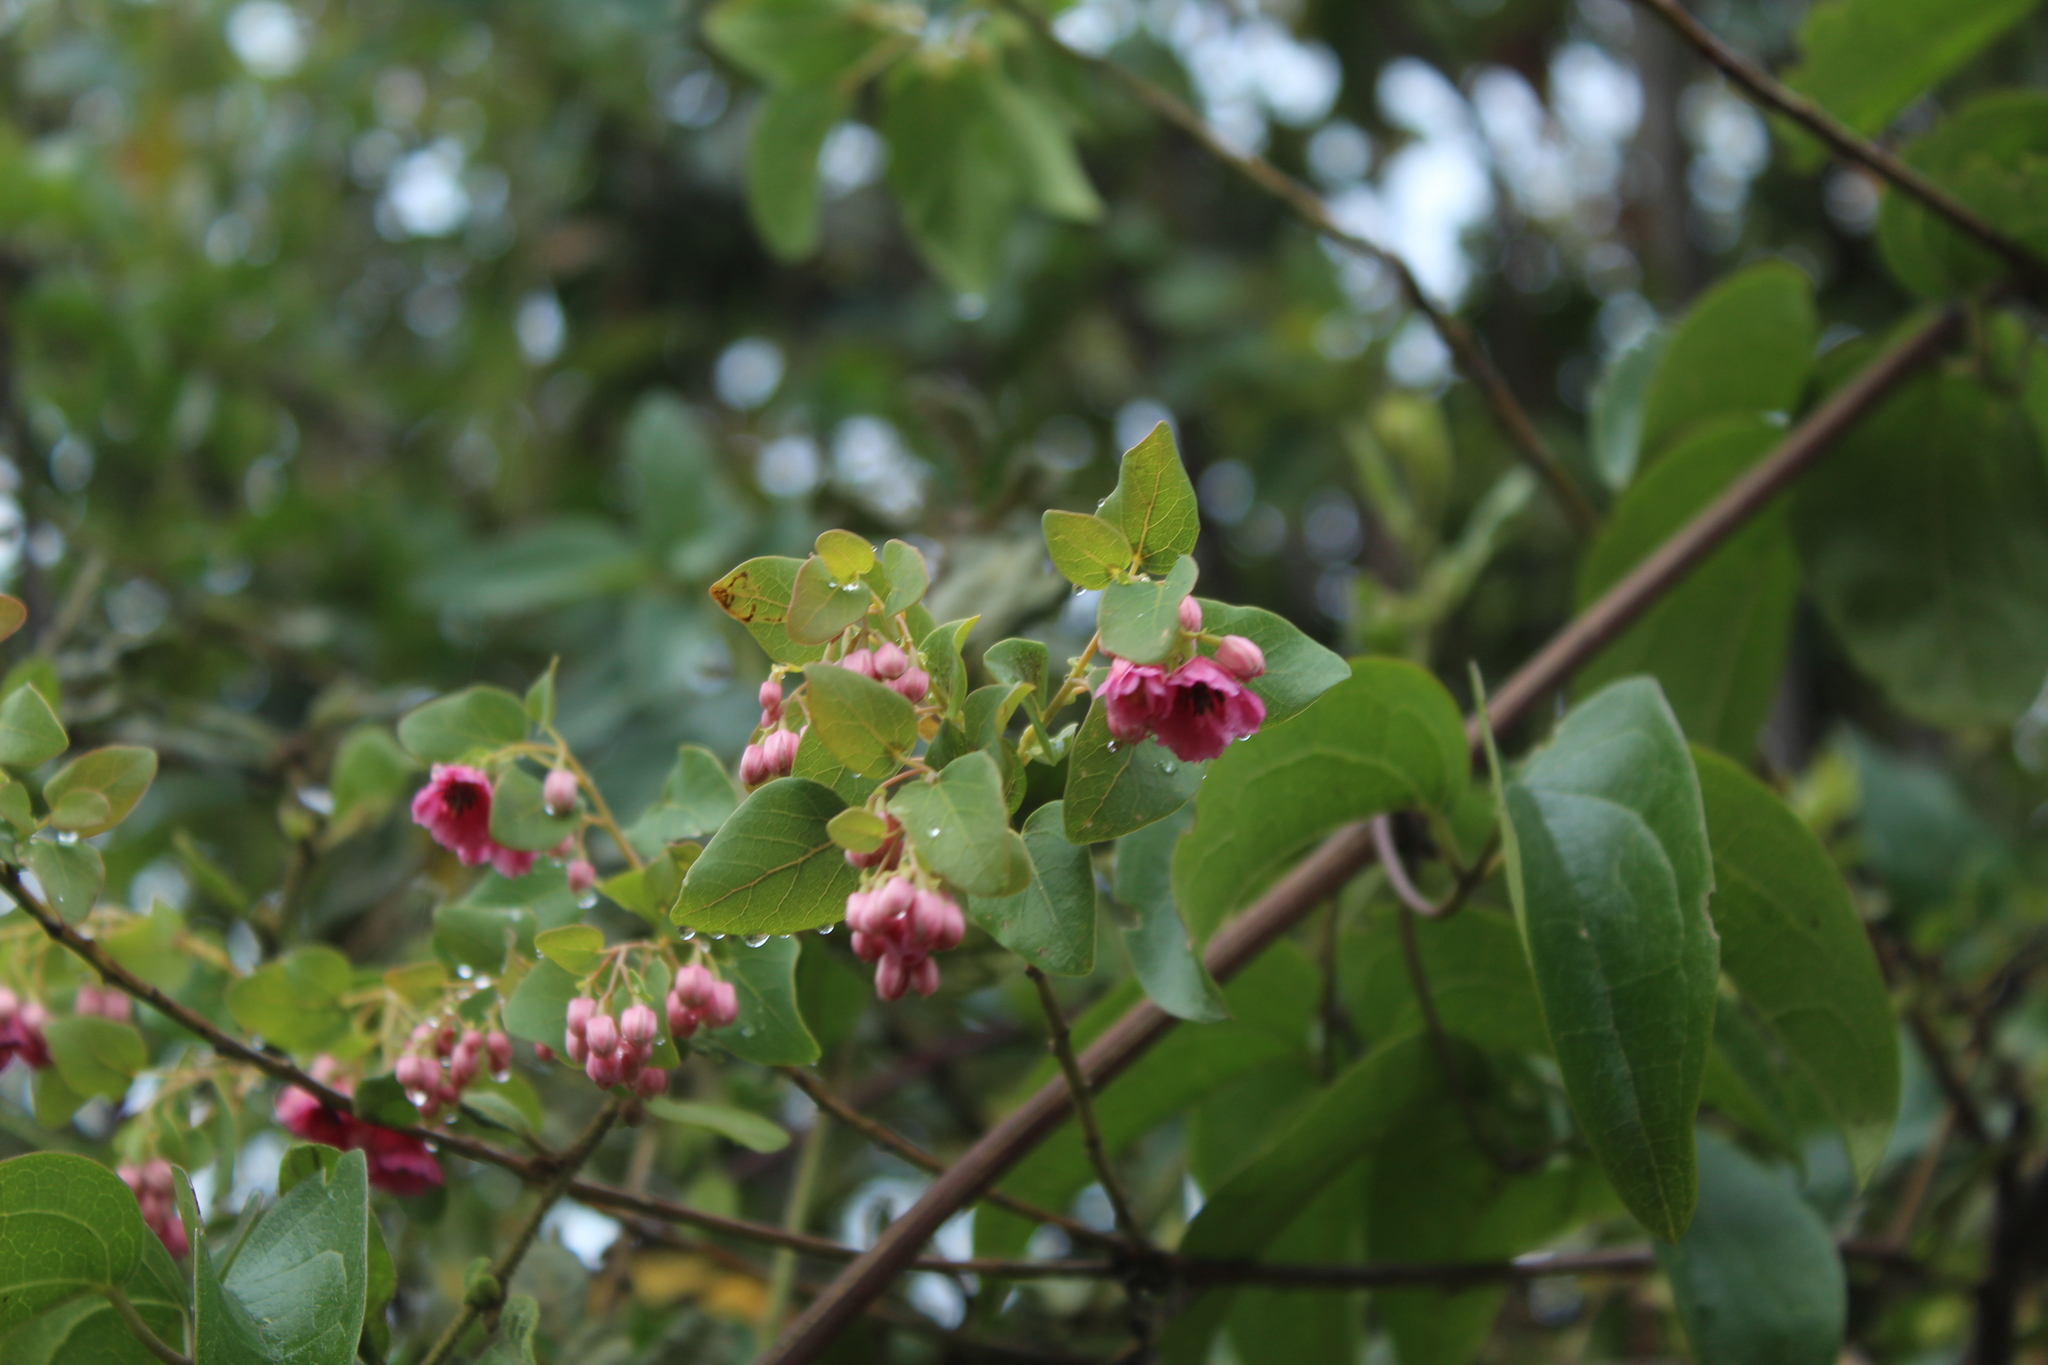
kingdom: Plantae
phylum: Tracheophyta
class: Magnoliopsida
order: Oxalidales
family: Elaeocarpaceae
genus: Vallea
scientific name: Vallea stipularis
